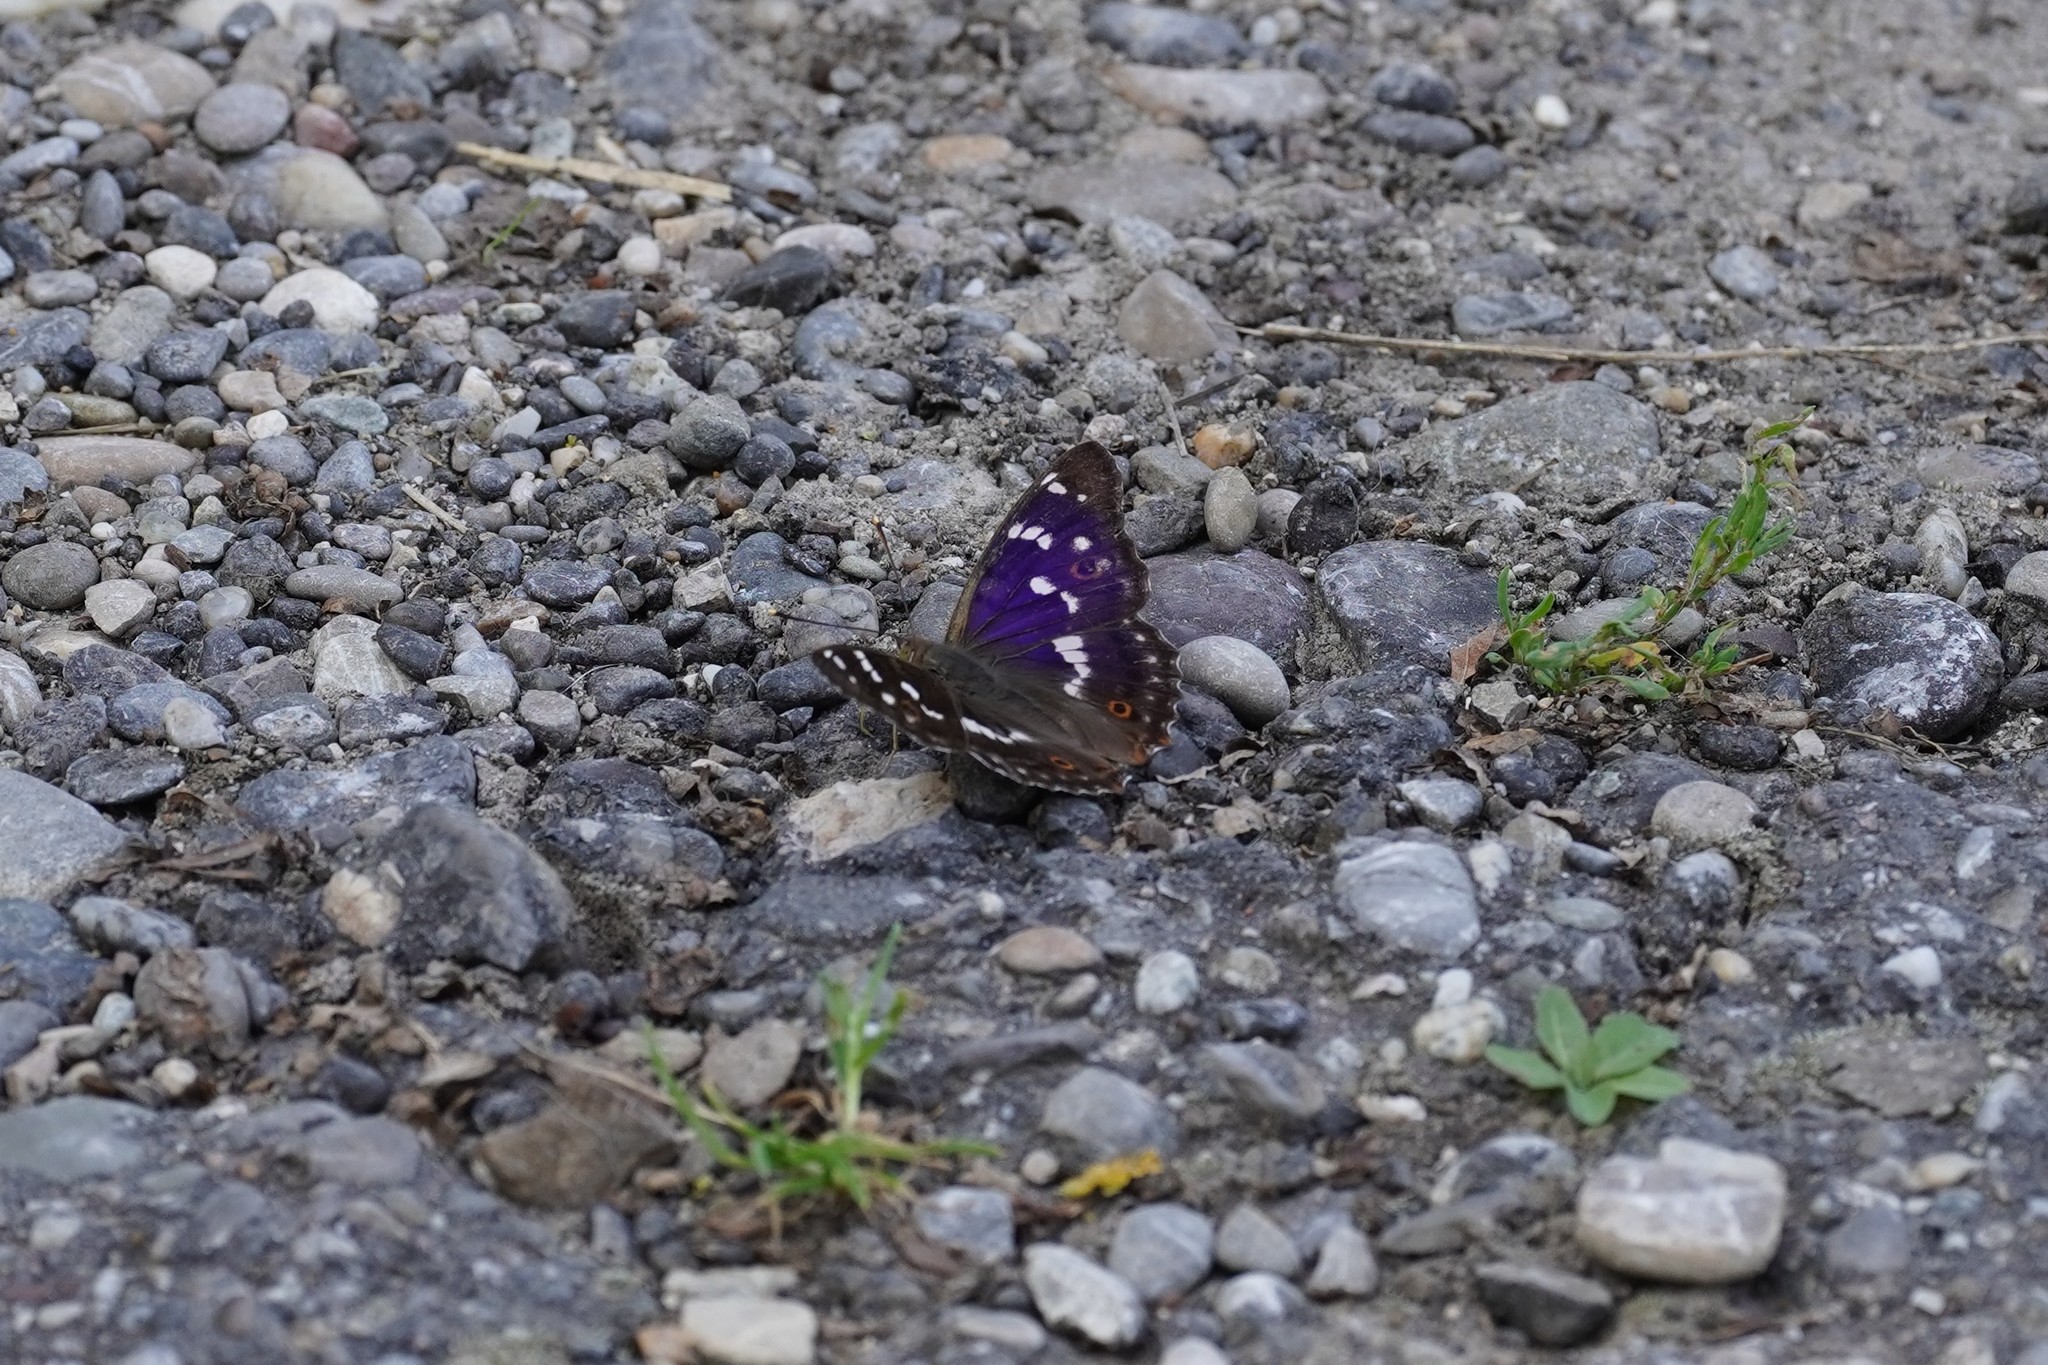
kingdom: Animalia
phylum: Arthropoda
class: Insecta
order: Lepidoptera
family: Nymphalidae
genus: Apatura
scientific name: Apatura ilia
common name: Lesser purple emperor
